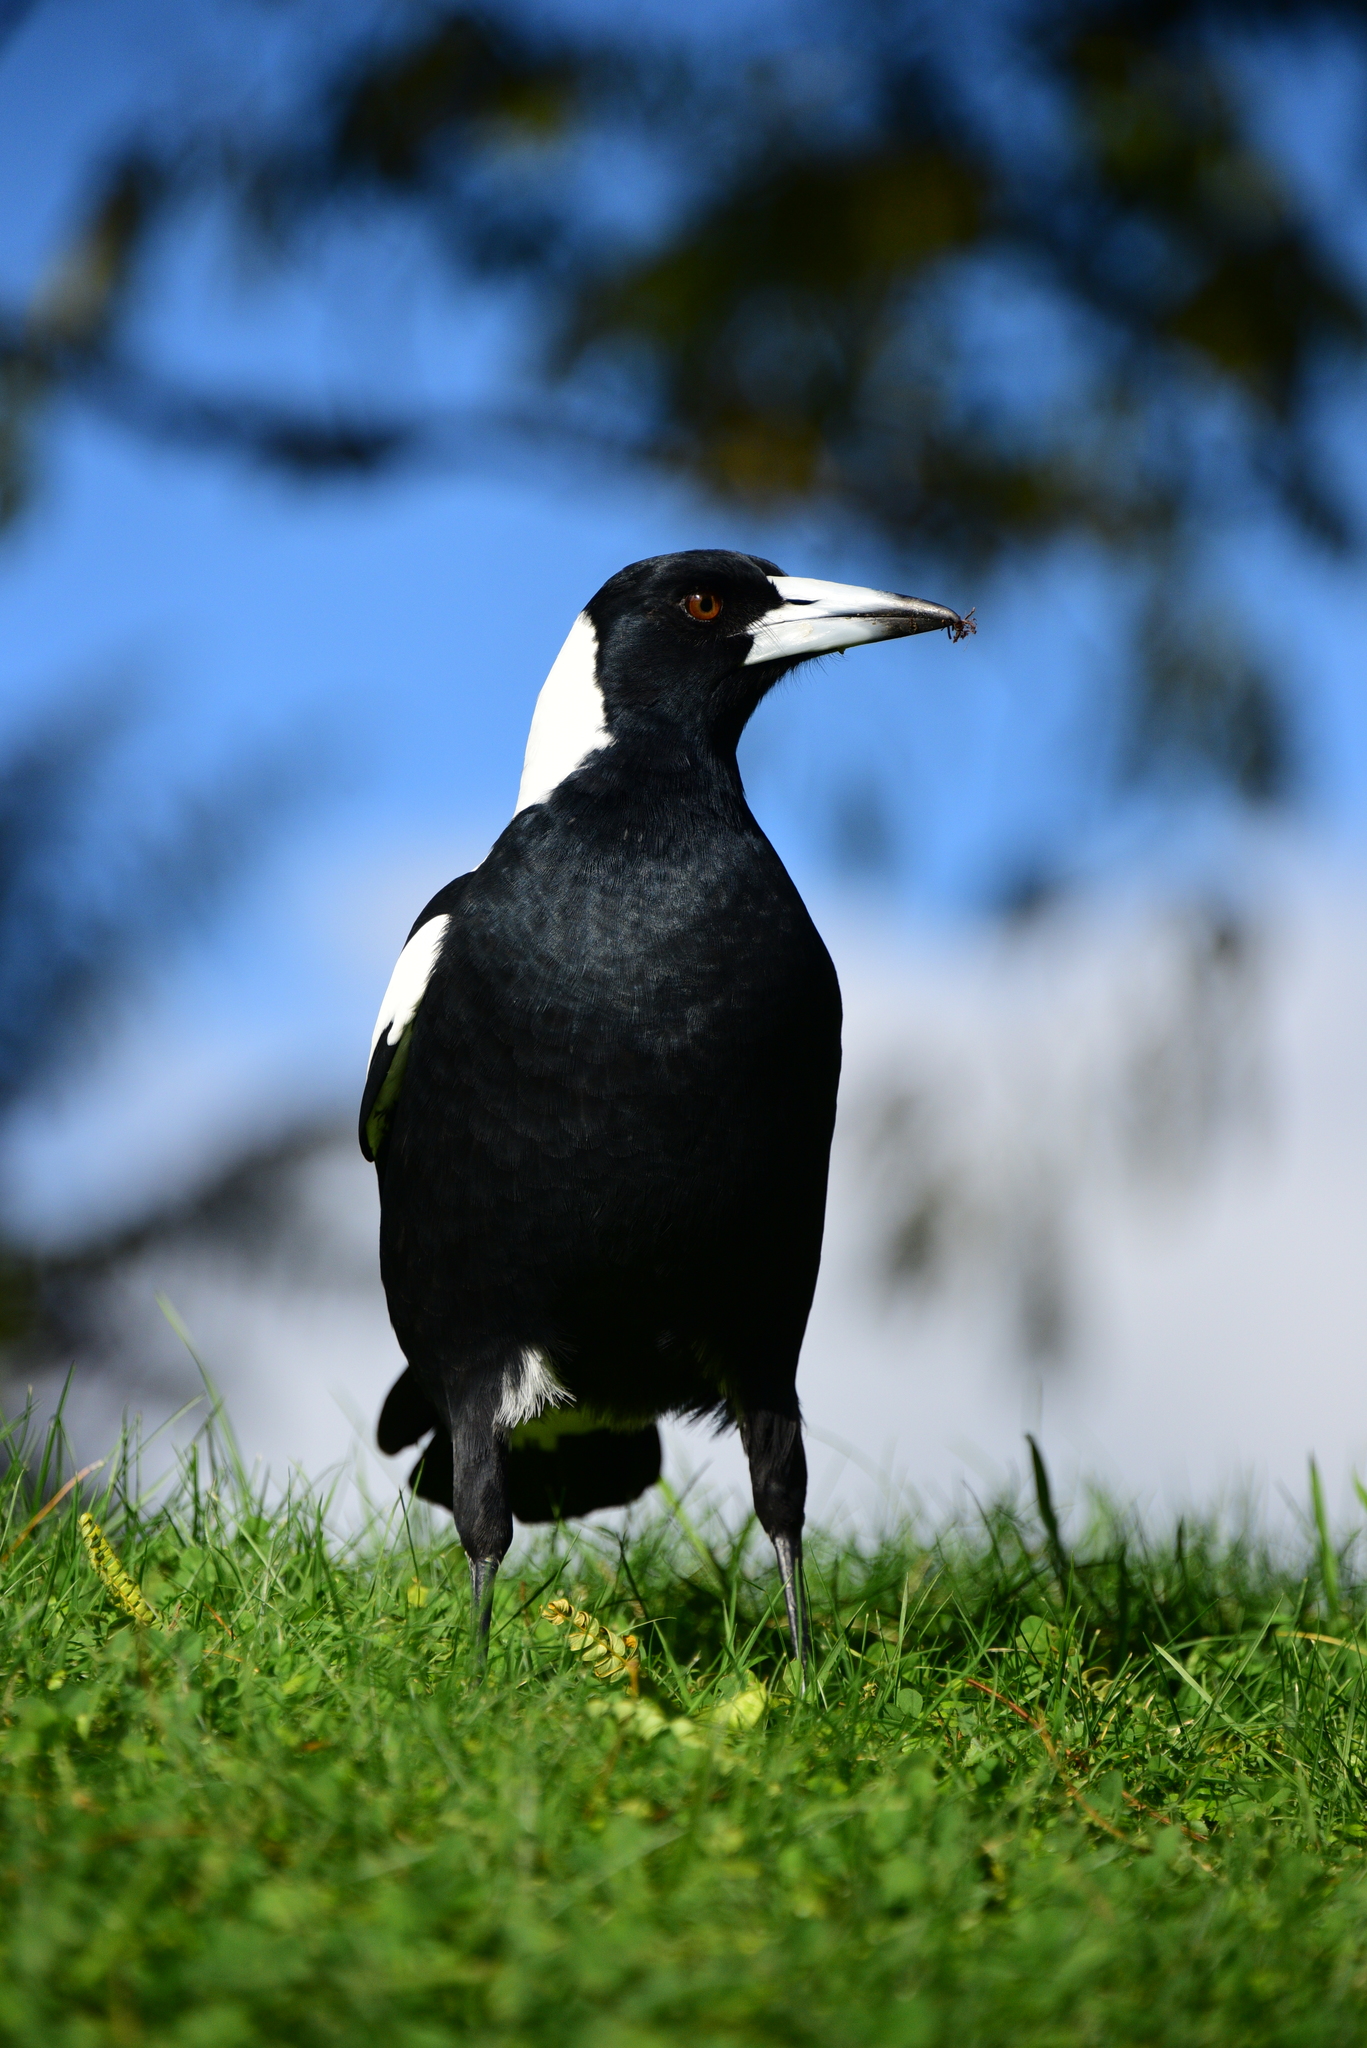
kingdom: Animalia
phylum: Chordata
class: Aves
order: Passeriformes
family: Cracticidae
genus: Gymnorhina
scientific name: Gymnorhina tibicen
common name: Australian magpie
